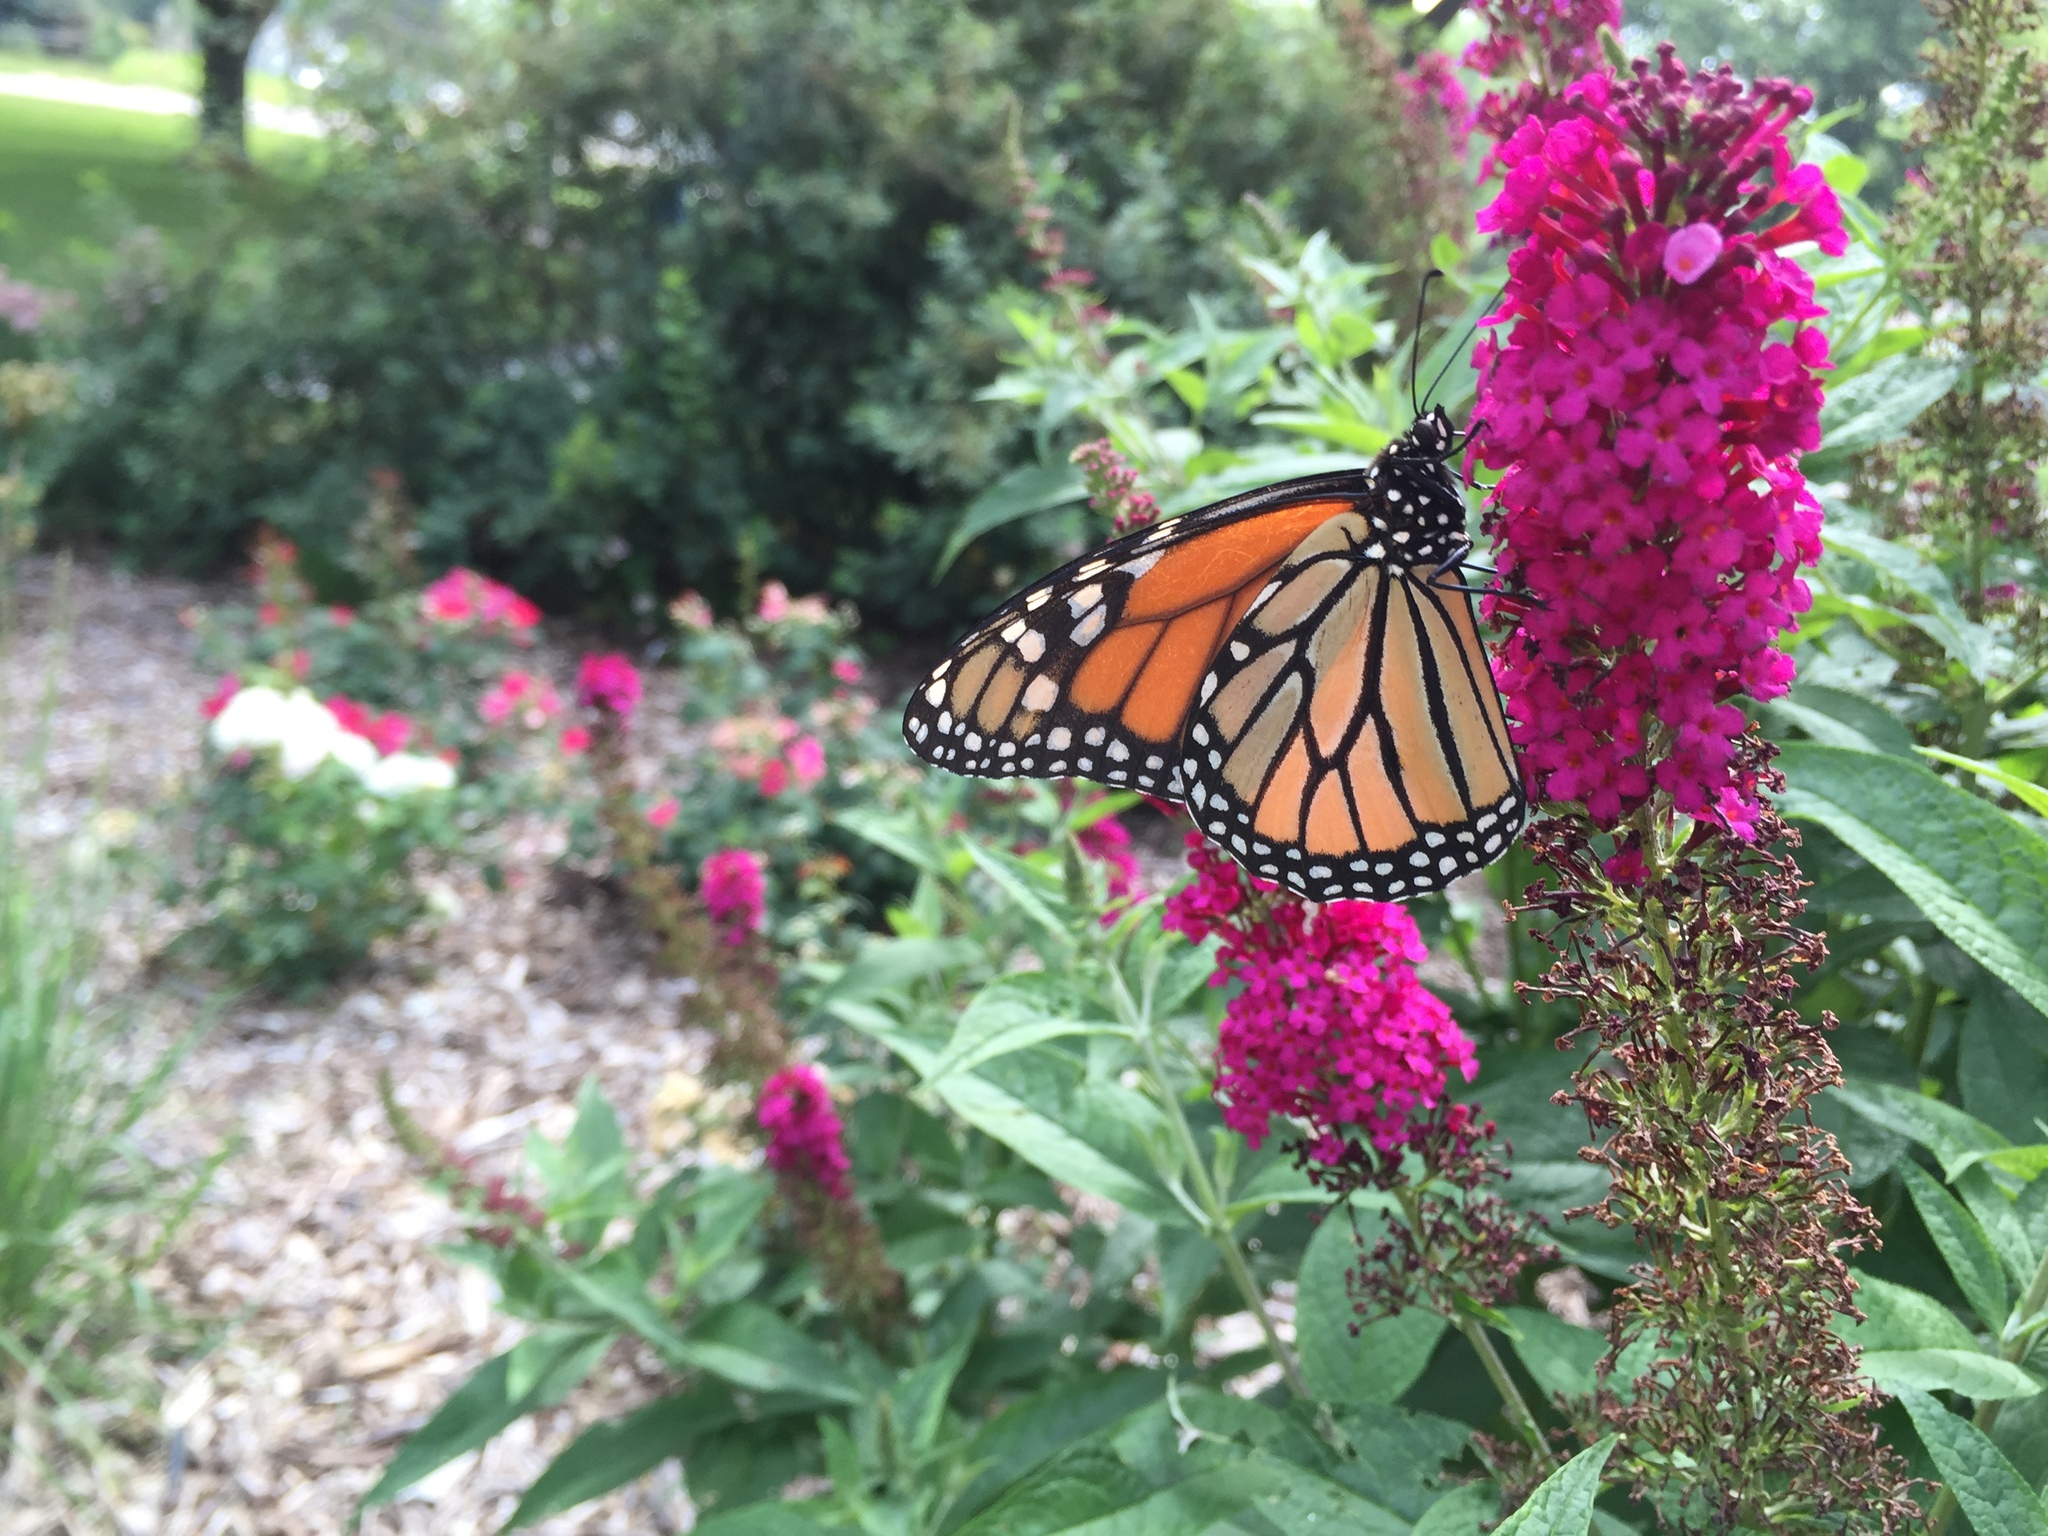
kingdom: Animalia
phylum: Arthropoda
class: Insecta
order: Lepidoptera
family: Nymphalidae
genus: Danaus
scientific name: Danaus plexippus
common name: Monarch
